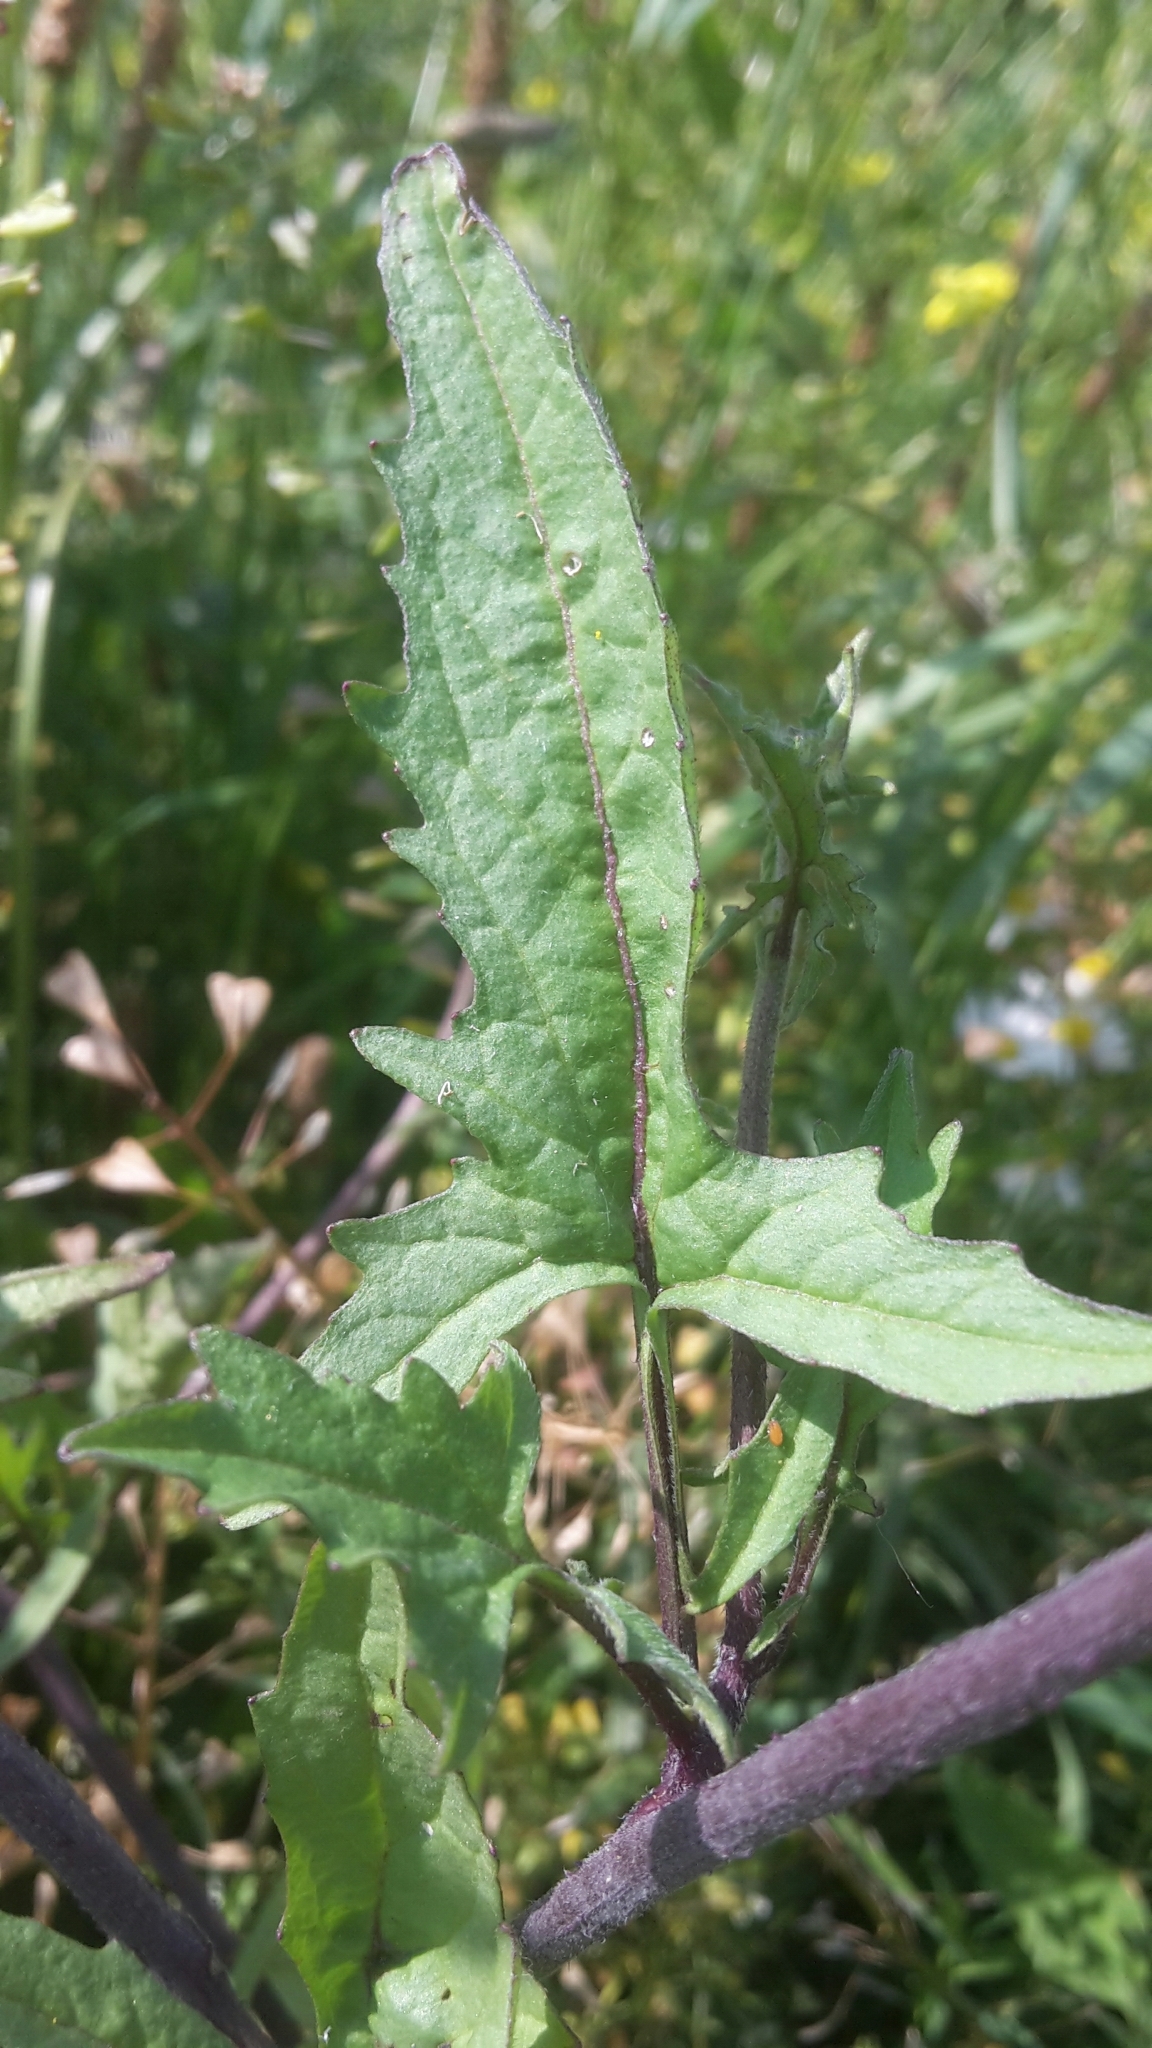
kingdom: Plantae
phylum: Tracheophyta
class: Magnoliopsida
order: Brassicales
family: Brassicaceae
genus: Sisymbrium
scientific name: Sisymbrium officinale
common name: Hedge mustard
